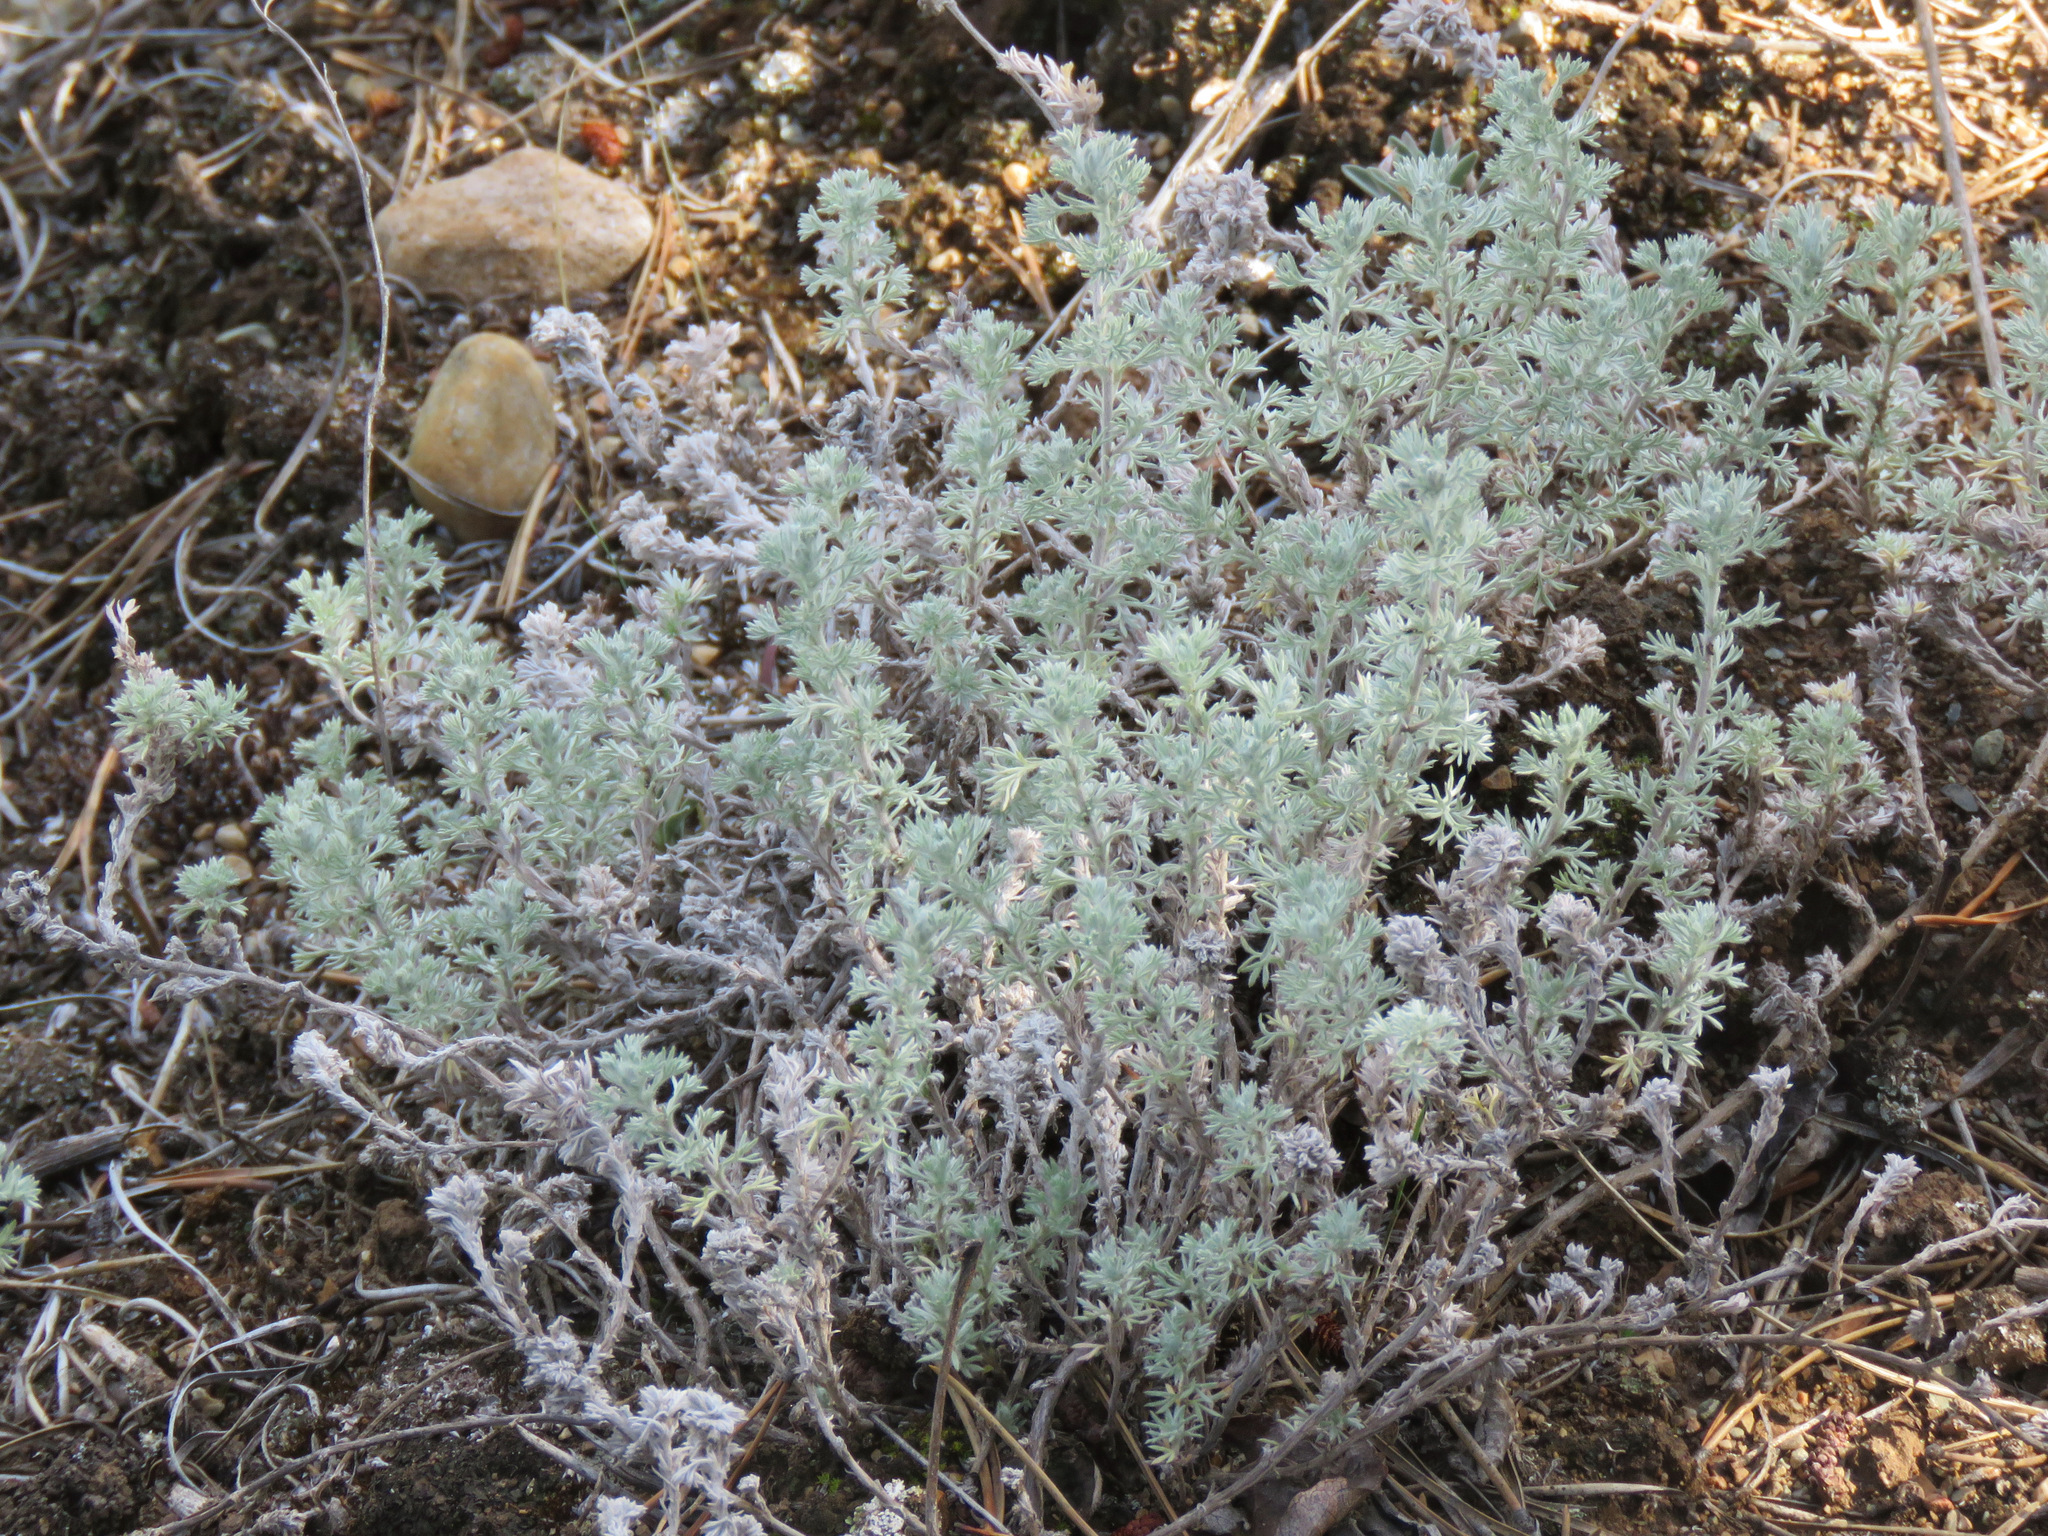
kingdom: Plantae
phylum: Tracheophyta
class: Magnoliopsida
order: Asterales
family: Asteraceae
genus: Artemisia
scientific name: Artemisia frigida
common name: Prairie sagewort
